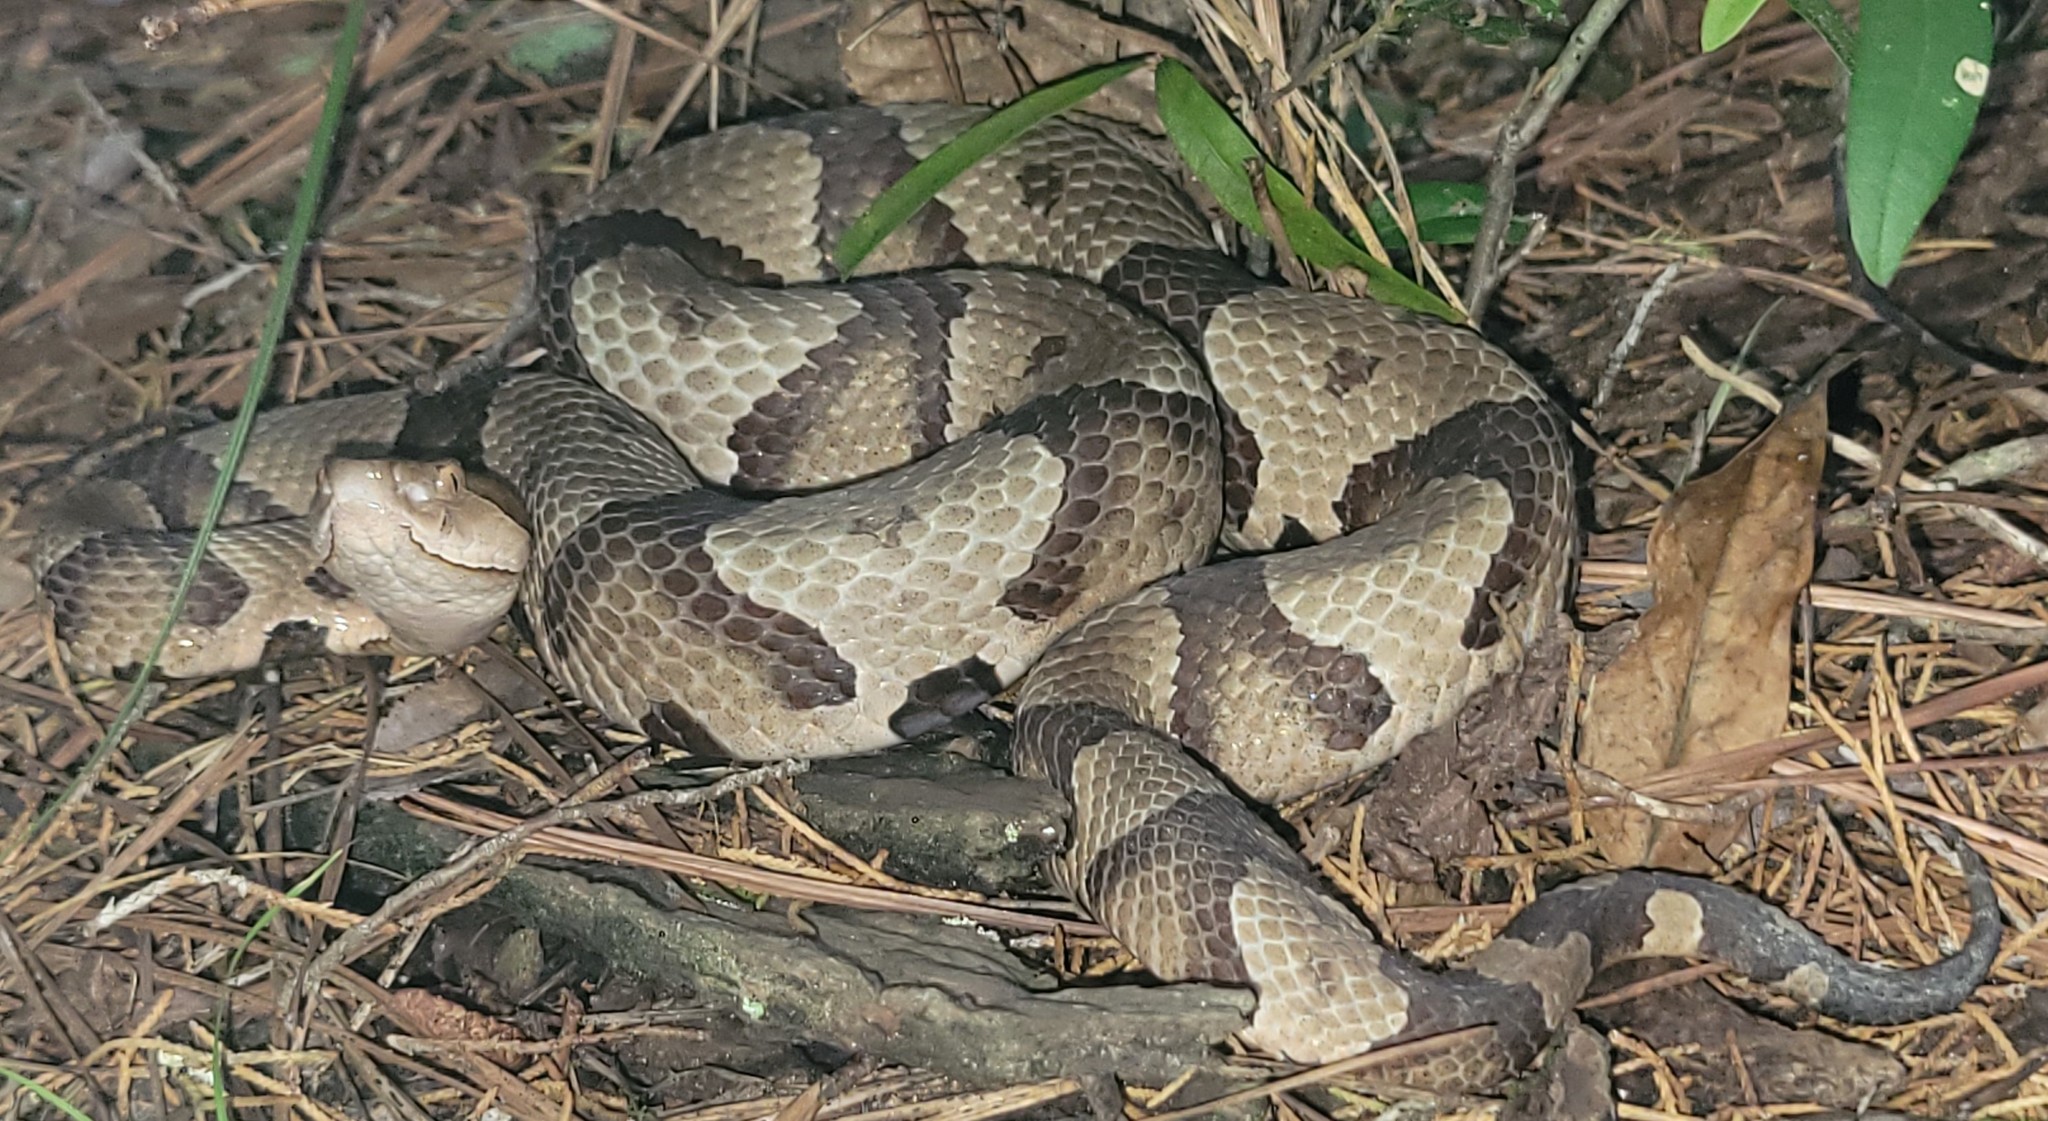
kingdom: Animalia
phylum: Chordata
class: Squamata
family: Viperidae
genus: Agkistrodon
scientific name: Agkistrodon contortrix
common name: Northern copperhead
